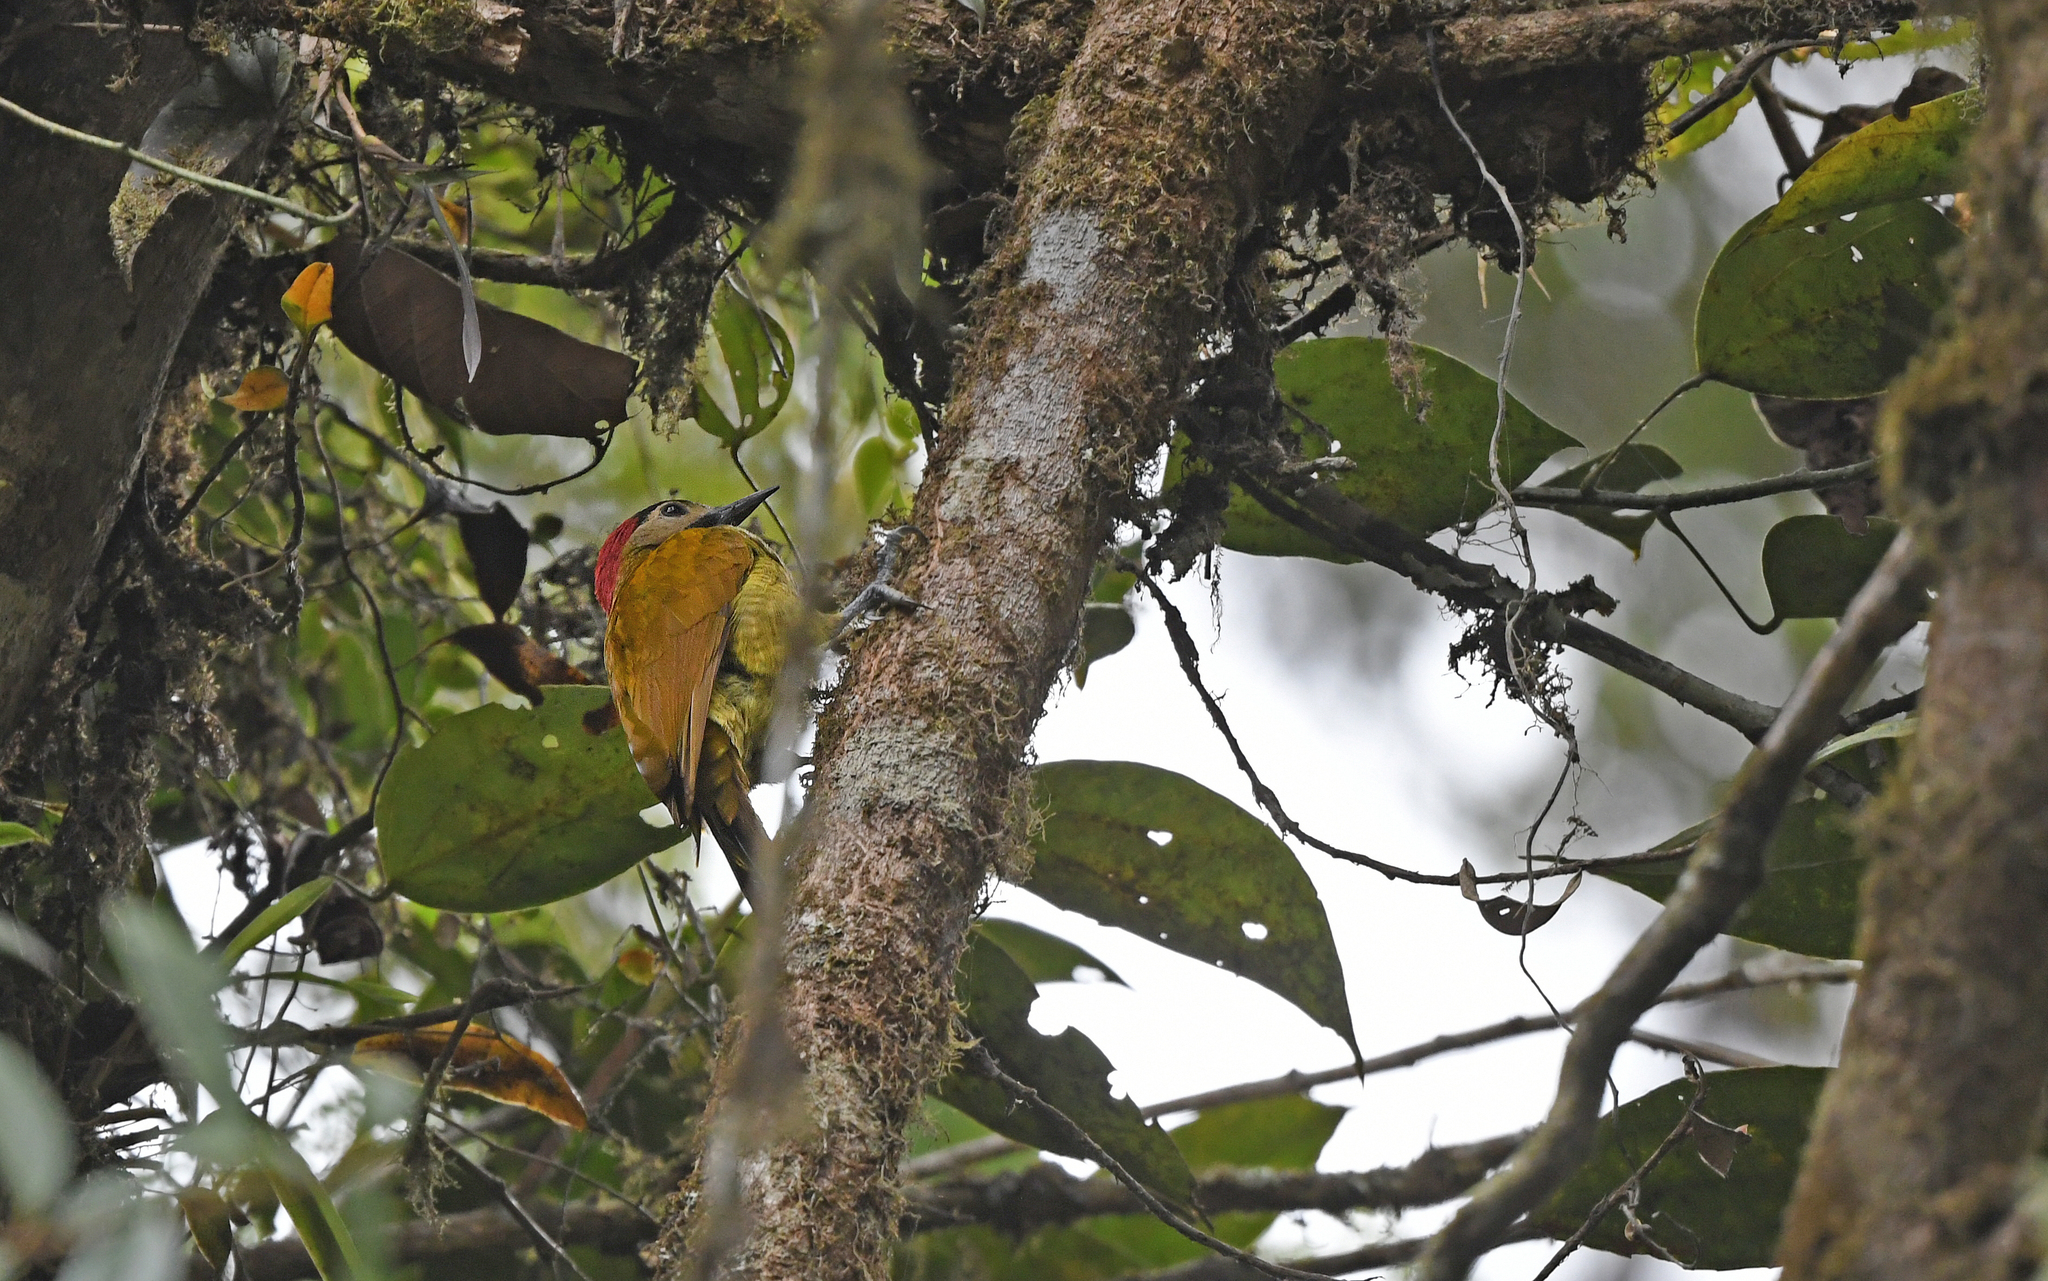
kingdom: Animalia
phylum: Chordata
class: Aves
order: Piciformes
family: Picidae
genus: Colaptes
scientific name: Colaptes rubiginosus
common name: Golden-olive woodpecker
